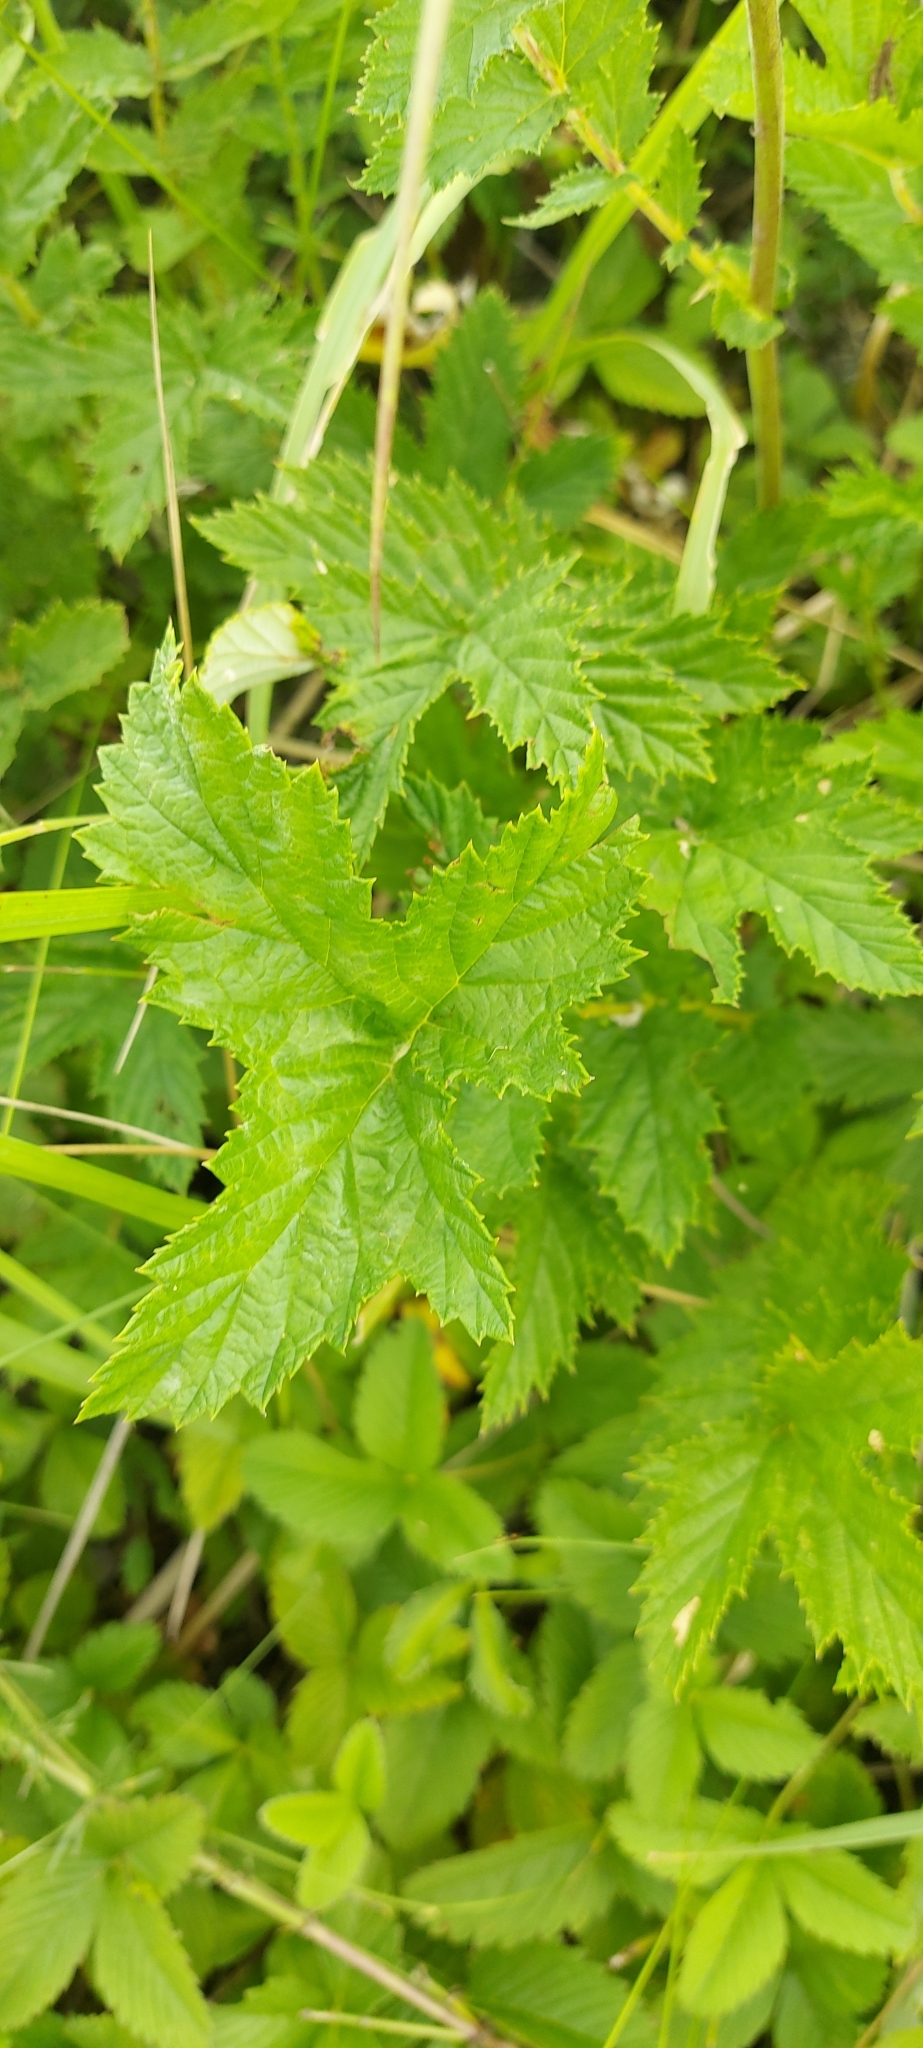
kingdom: Plantae
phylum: Tracheophyta
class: Magnoliopsida
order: Rosales
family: Rosaceae
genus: Filipendula
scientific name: Filipendula ulmaria
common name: Meadowsweet
